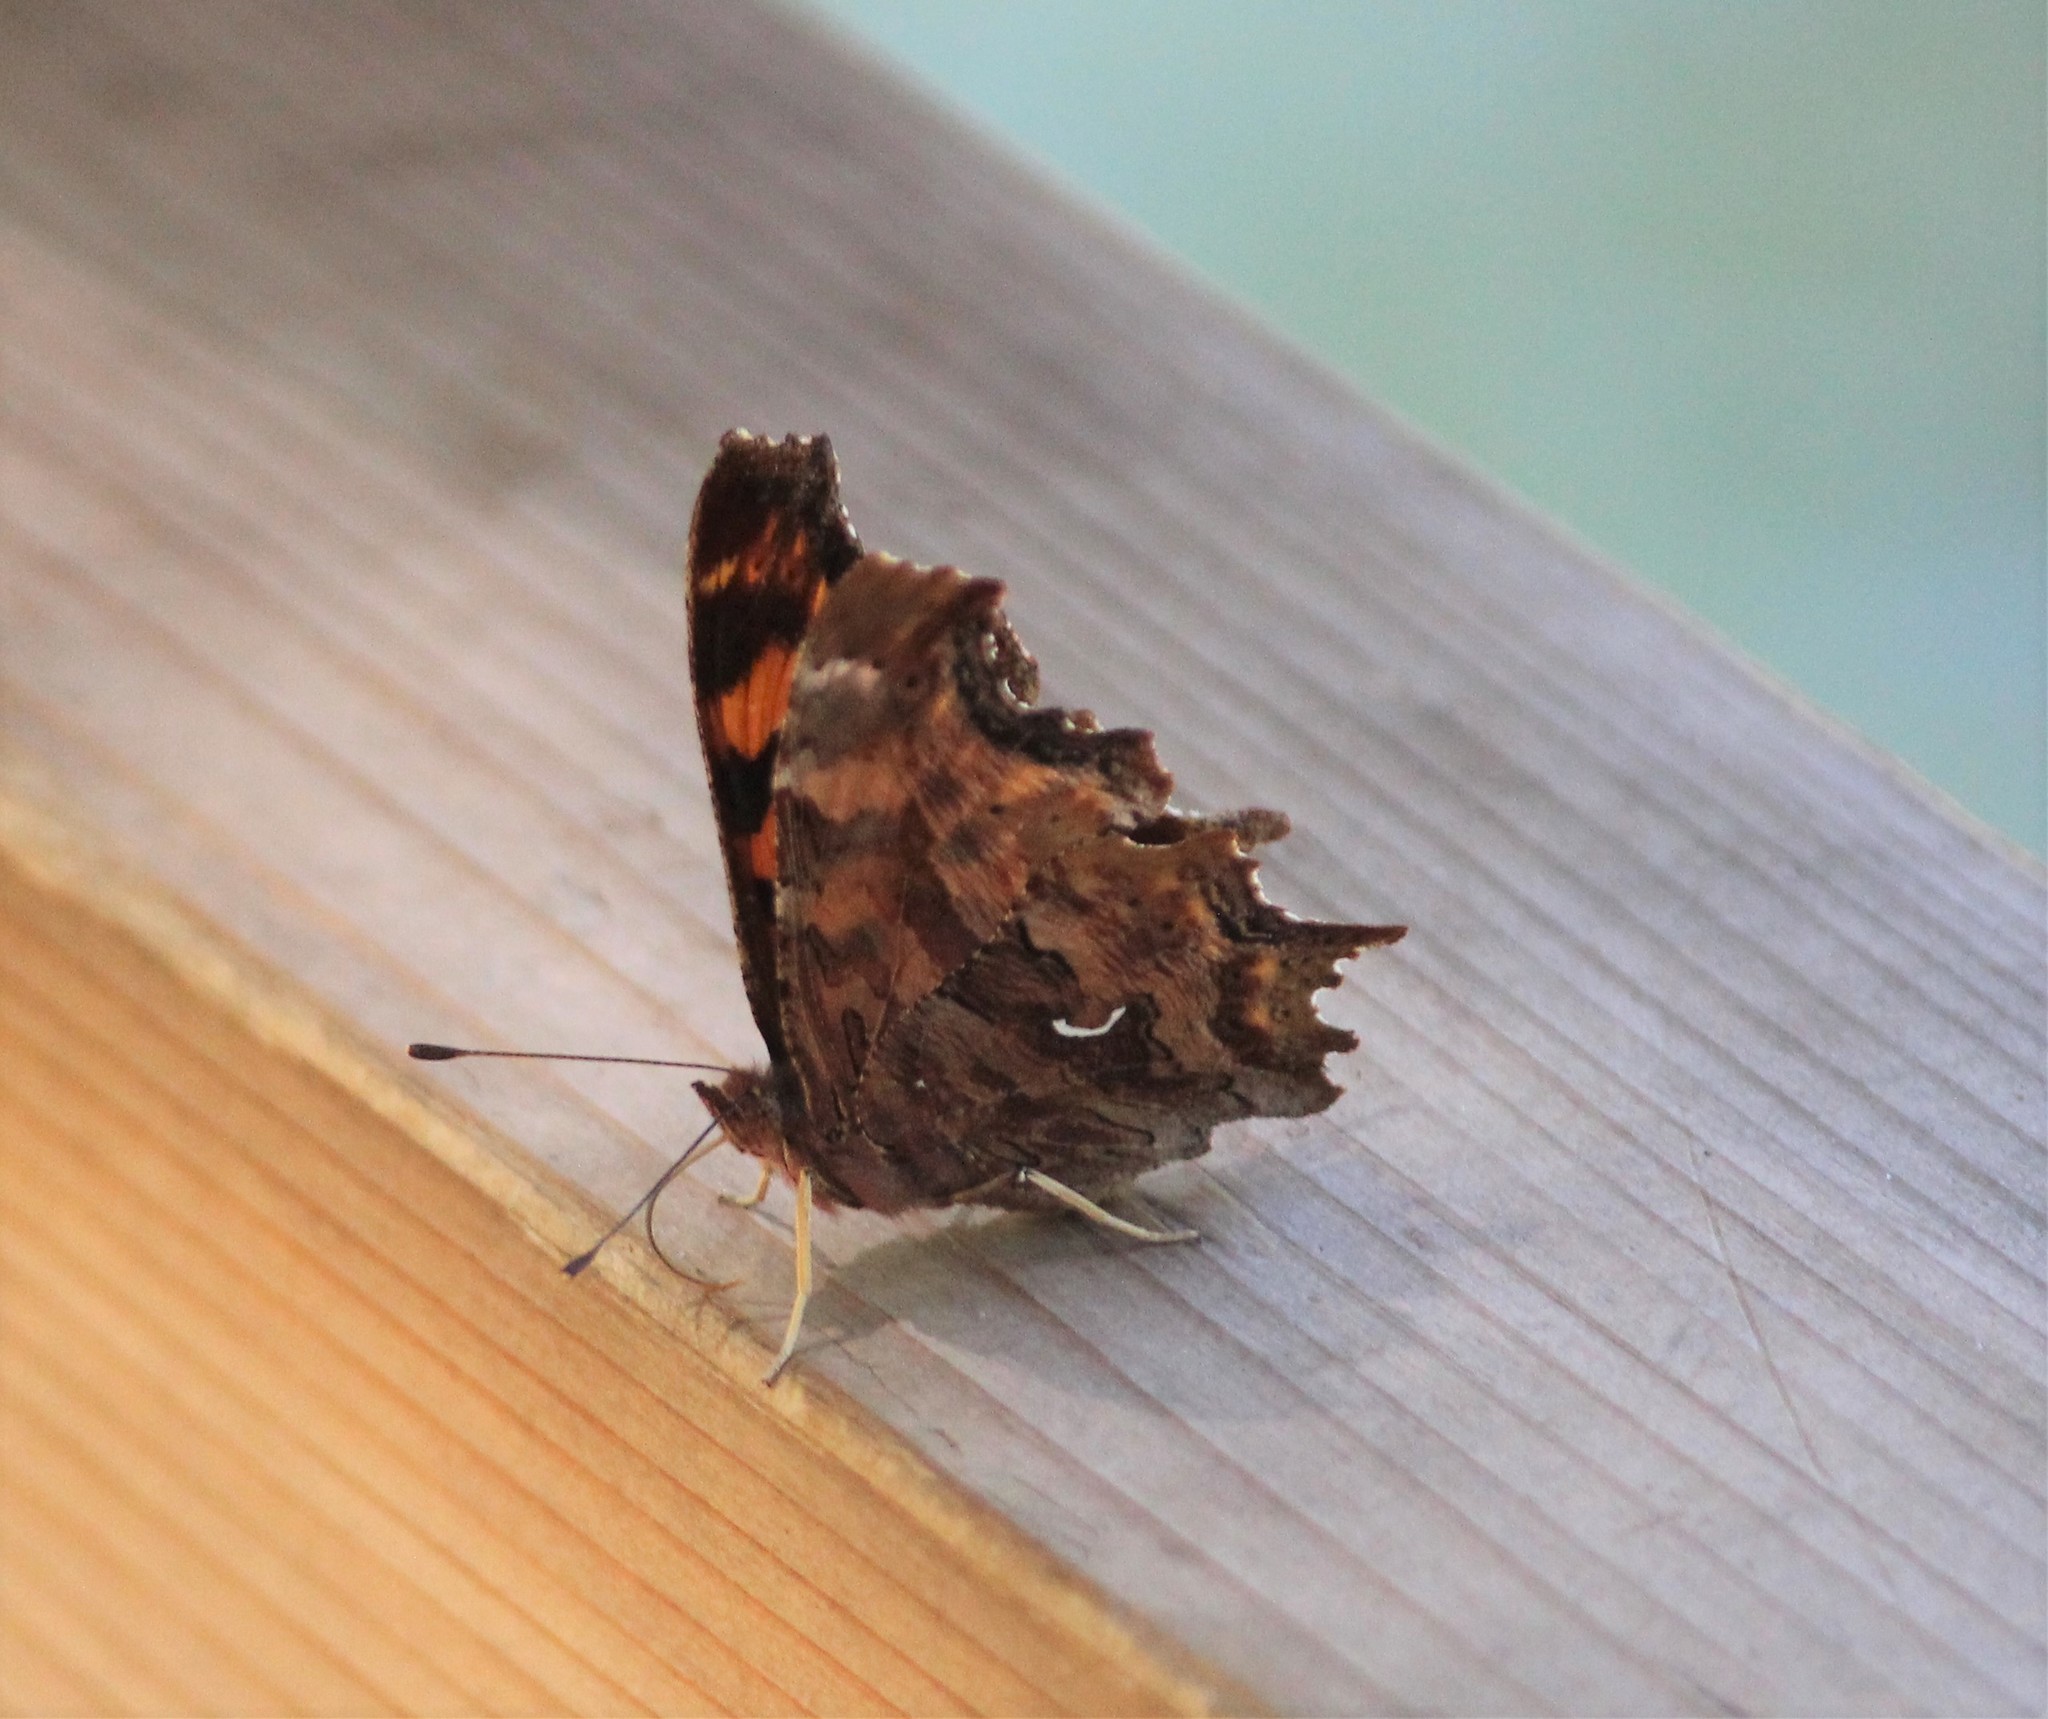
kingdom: Animalia
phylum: Arthropoda
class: Insecta
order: Lepidoptera
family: Nymphalidae
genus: Polygonia
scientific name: Polygonia satyrus
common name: Satyr angle wing
